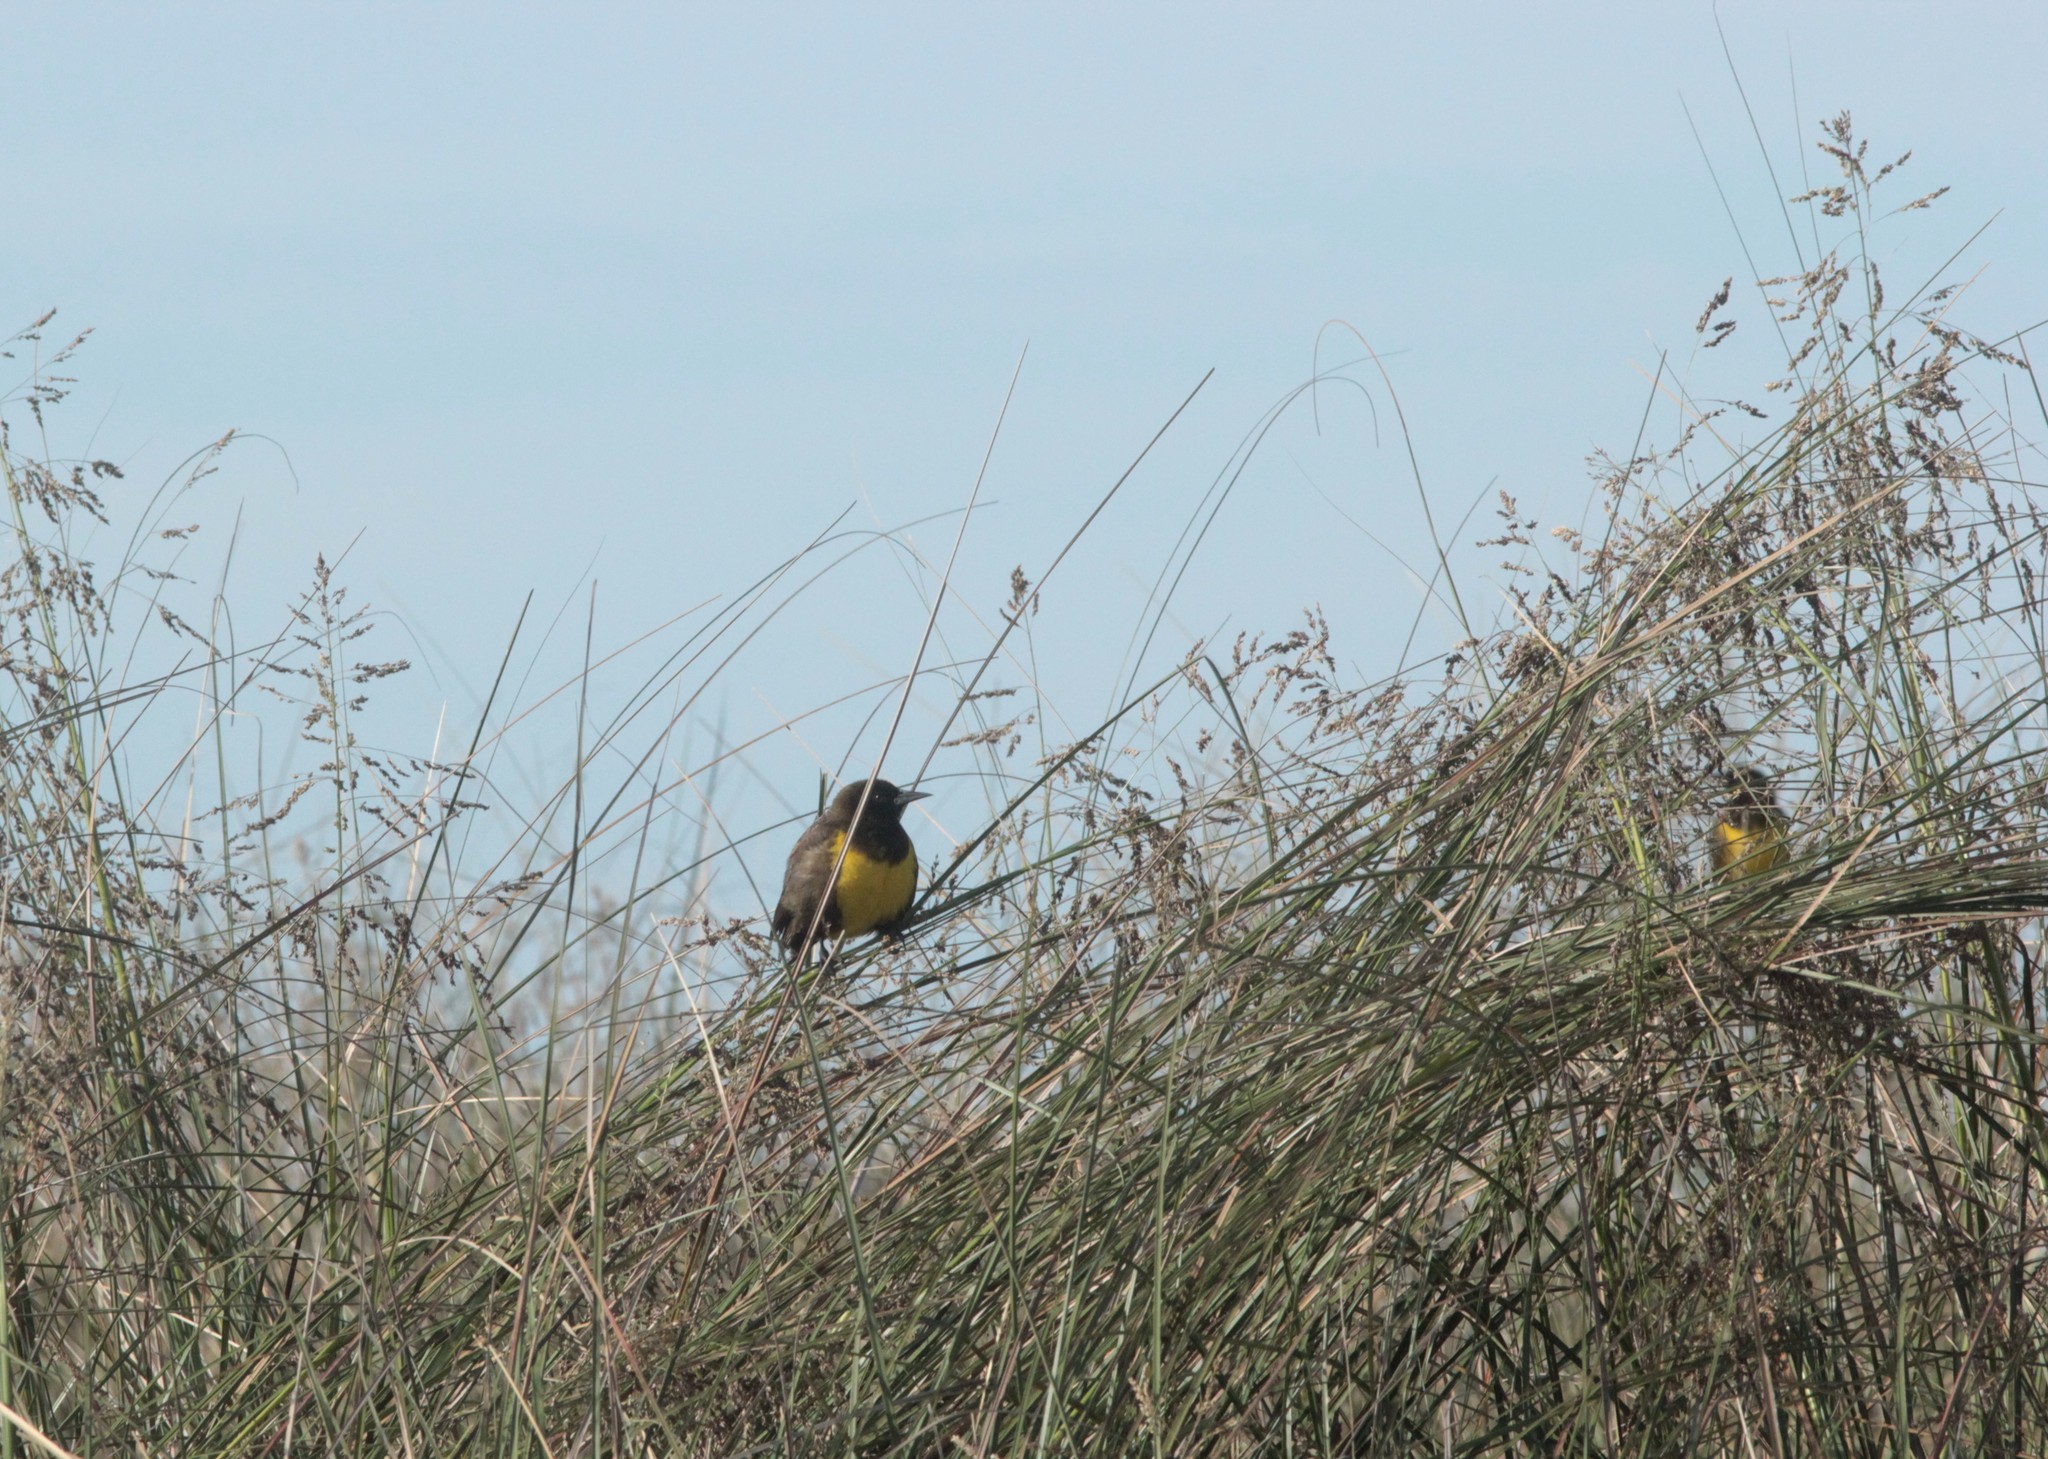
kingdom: Animalia
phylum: Chordata
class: Aves
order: Passeriformes
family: Icteridae
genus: Pseudoleistes
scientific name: Pseudoleistes virescens
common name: Brown-and-yellow marshbird
